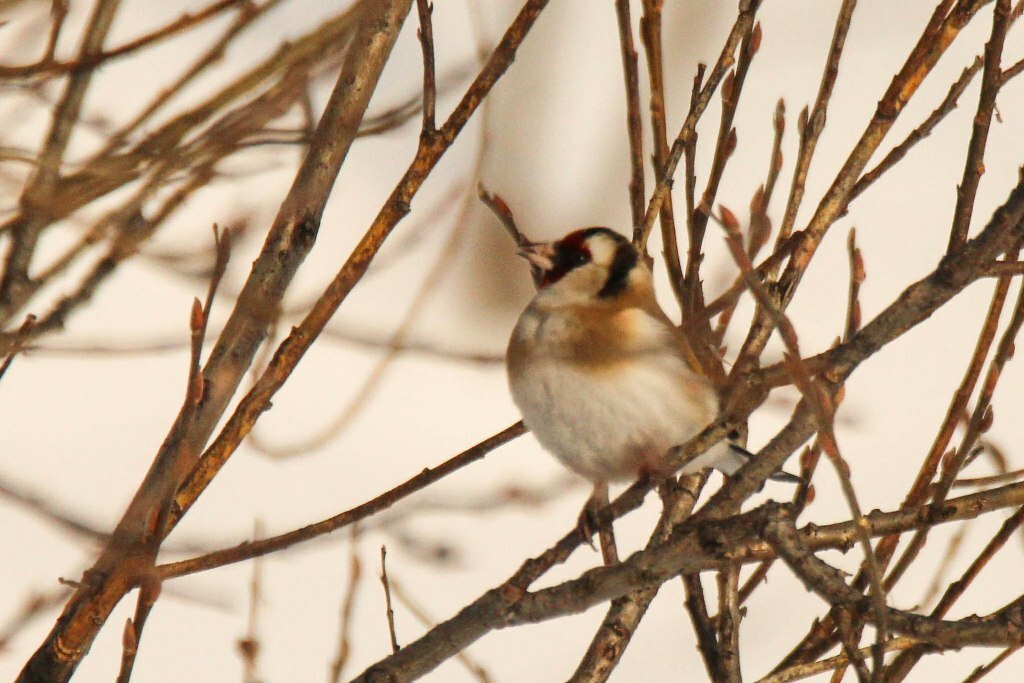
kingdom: Animalia
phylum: Chordata
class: Aves
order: Passeriformes
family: Fringillidae
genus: Carduelis
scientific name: Carduelis carduelis
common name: European goldfinch
